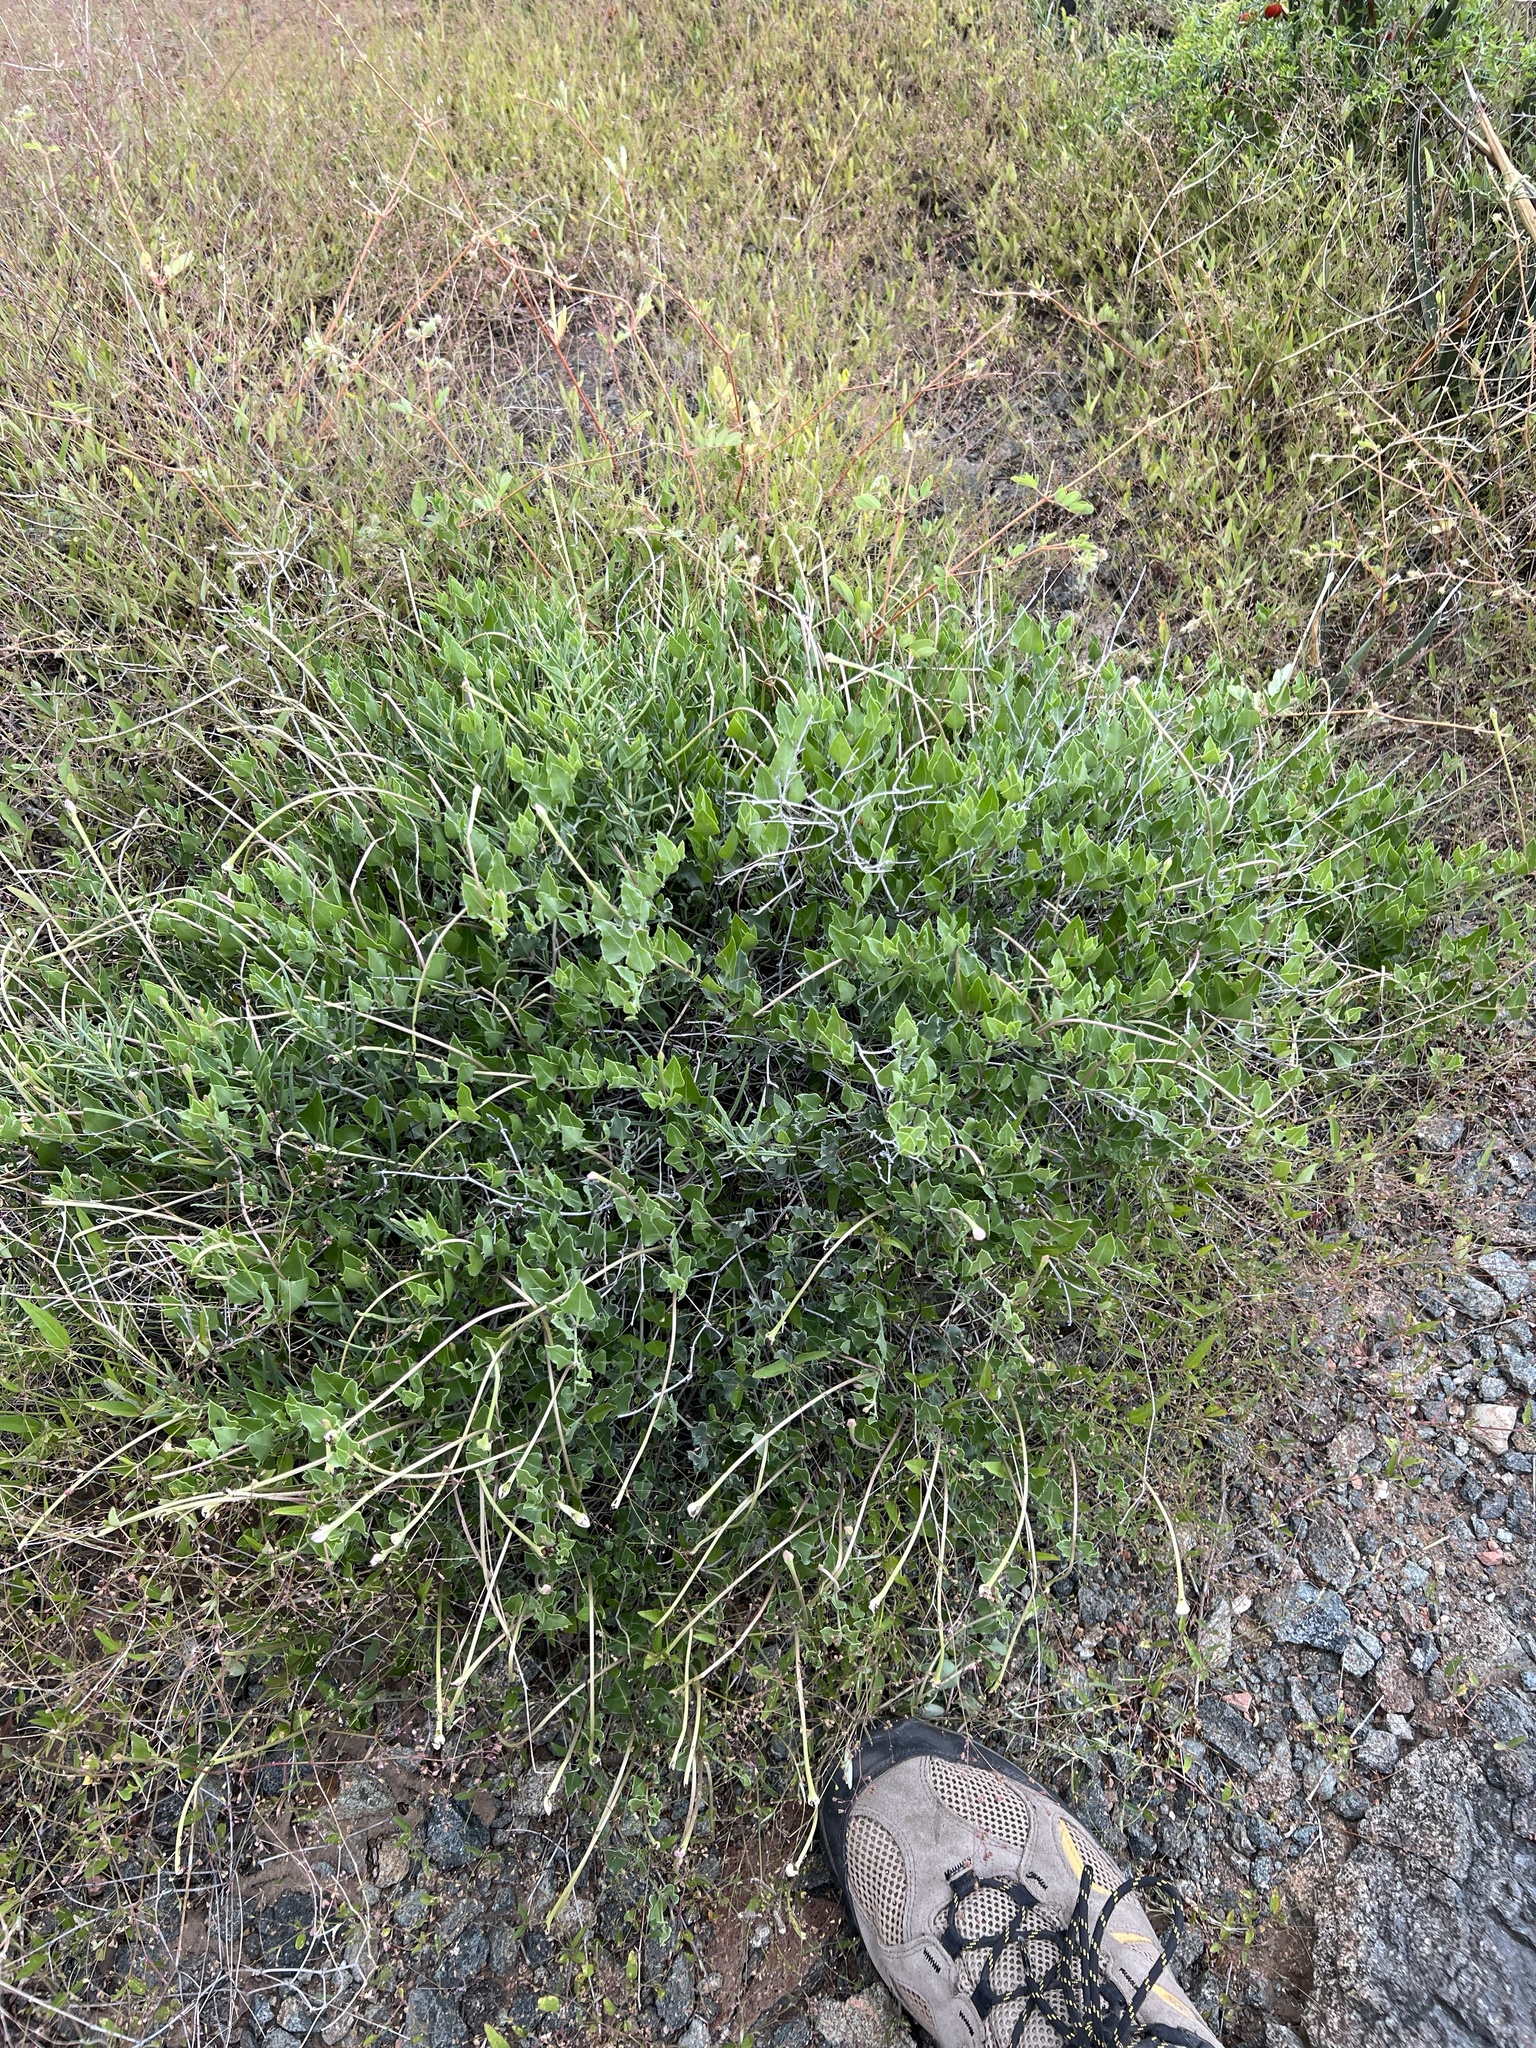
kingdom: Plantae
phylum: Tracheophyta
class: Magnoliopsida
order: Caryophyllales
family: Nyctaginaceae
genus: Acleisanthes
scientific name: Acleisanthes longiflora
